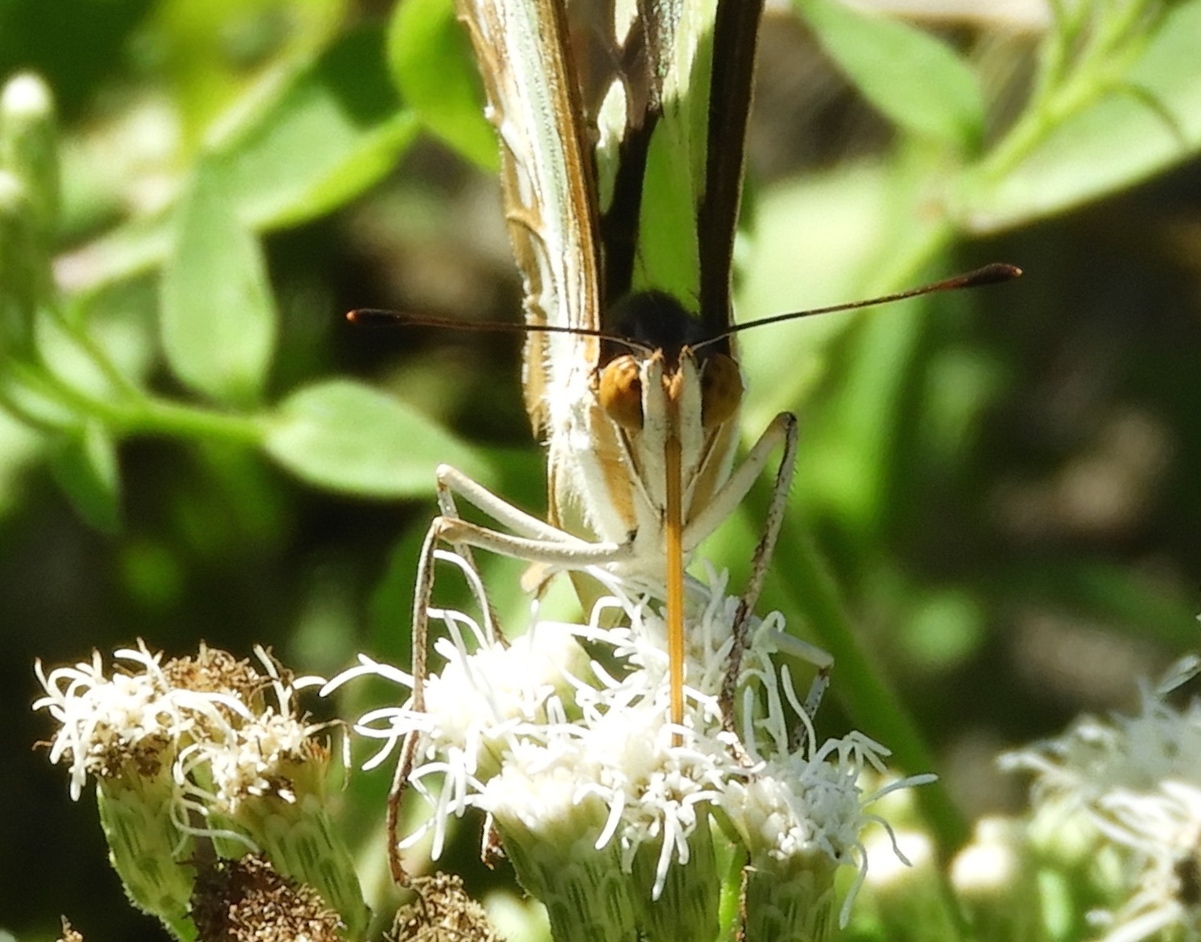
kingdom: Animalia
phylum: Arthropoda
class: Insecta
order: Lepidoptera
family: Nymphalidae
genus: Siproeta
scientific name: Siproeta stelenes
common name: Malachite
